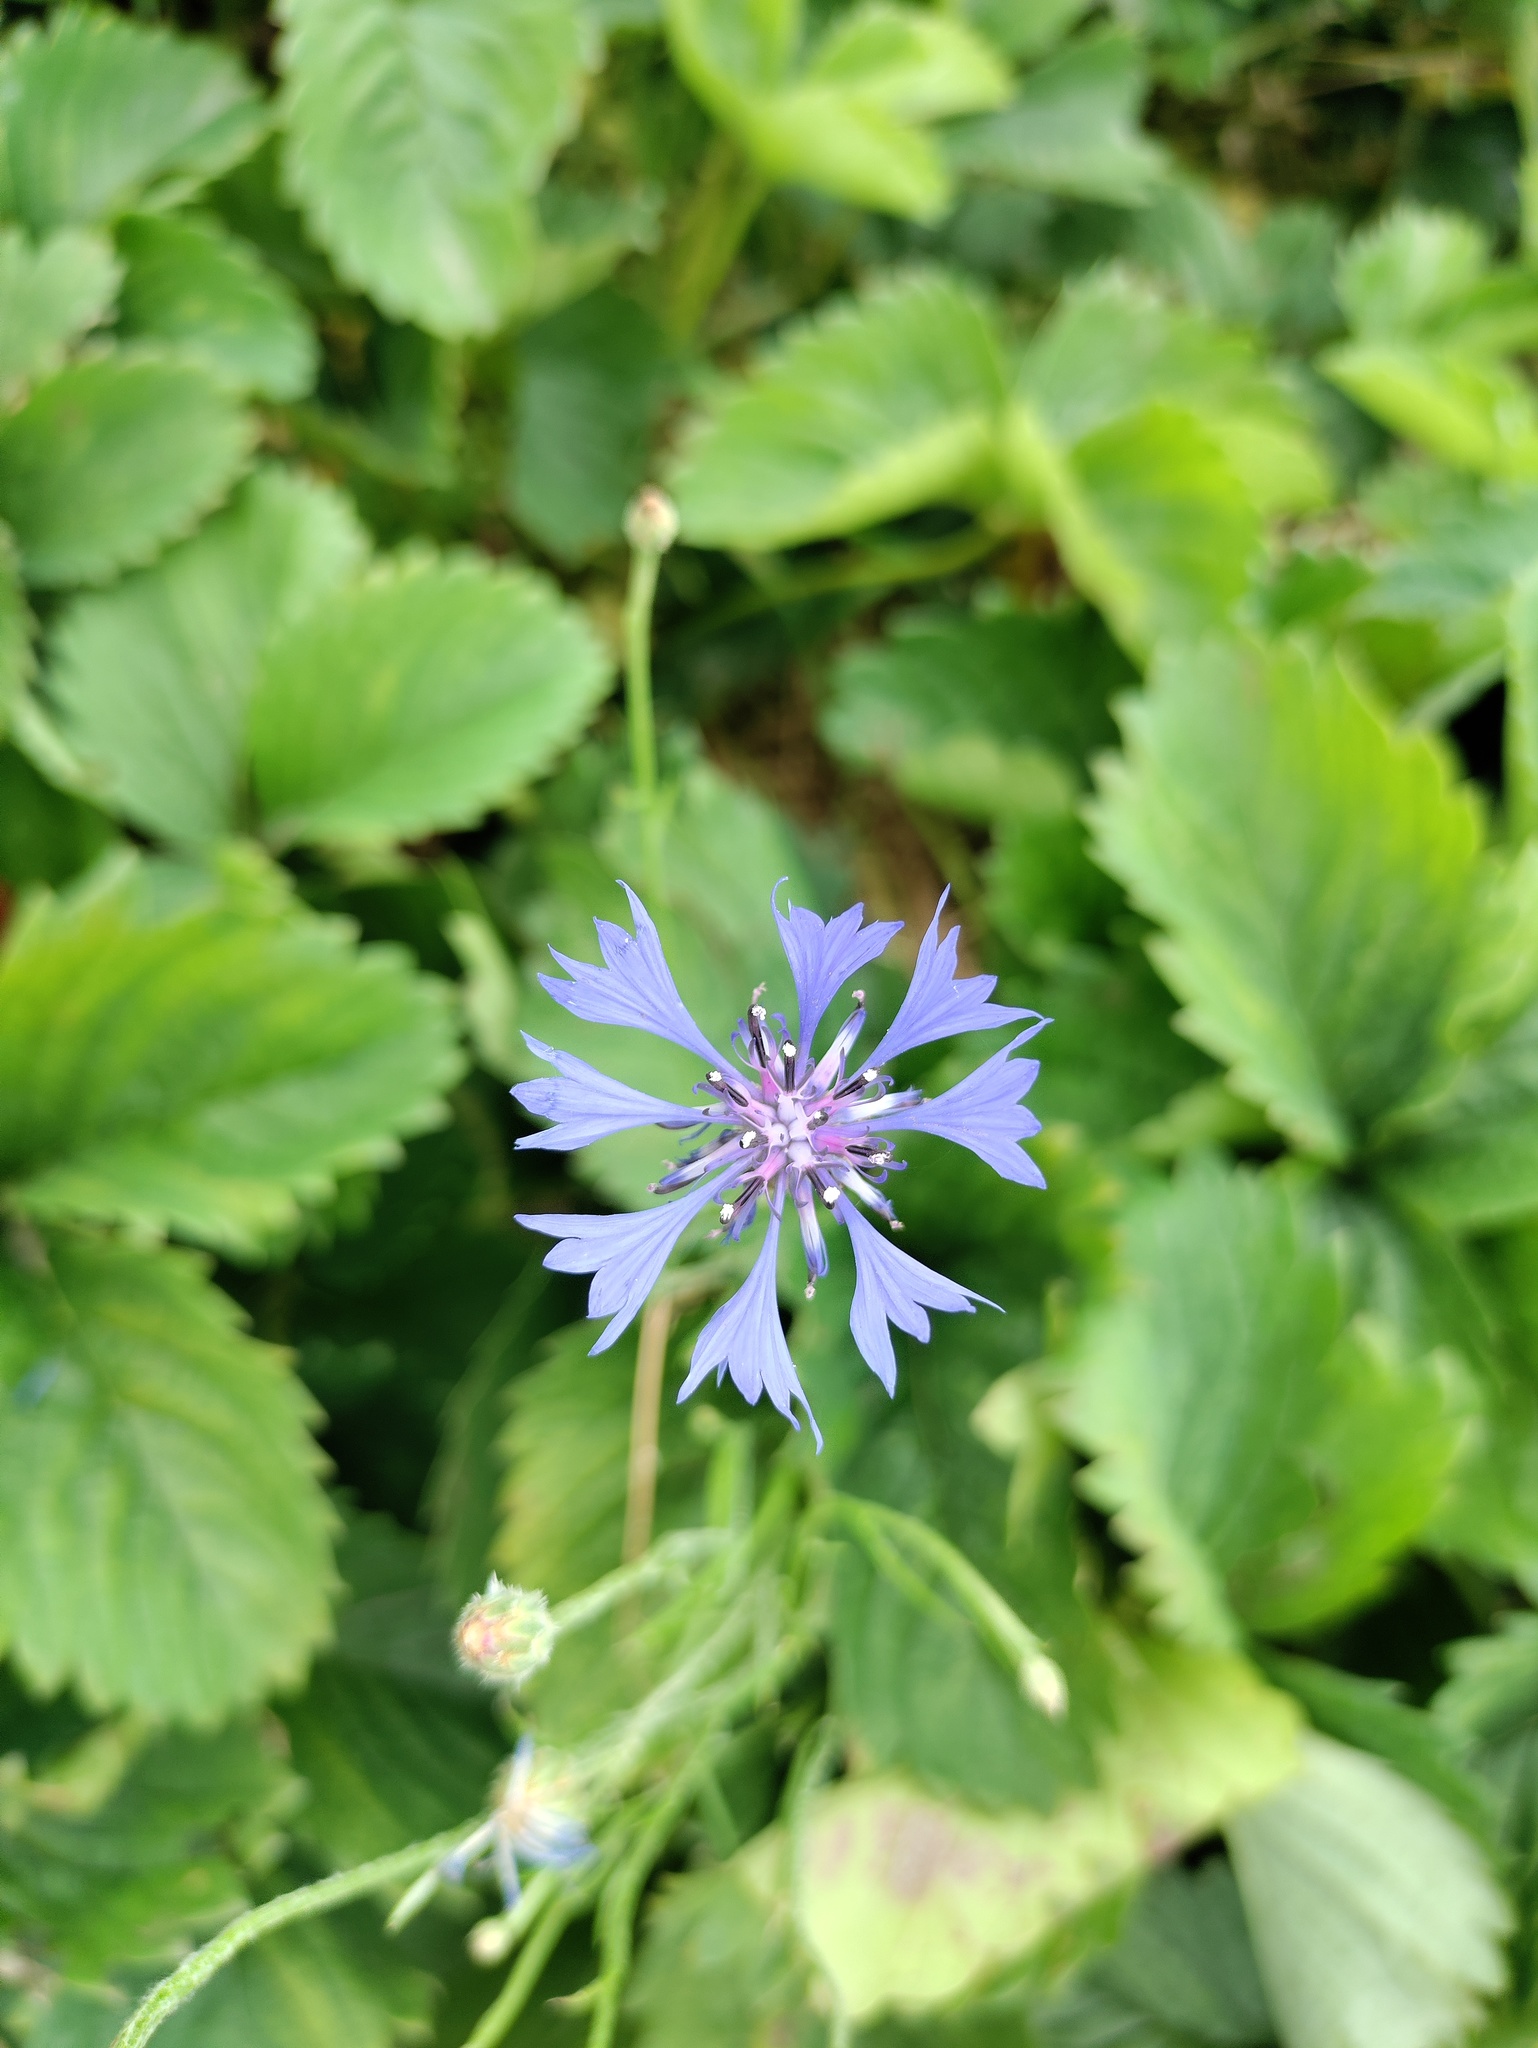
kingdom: Plantae
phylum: Tracheophyta
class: Magnoliopsida
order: Asterales
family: Asteraceae
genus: Centaurea
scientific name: Centaurea cyanus
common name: Cornflower
